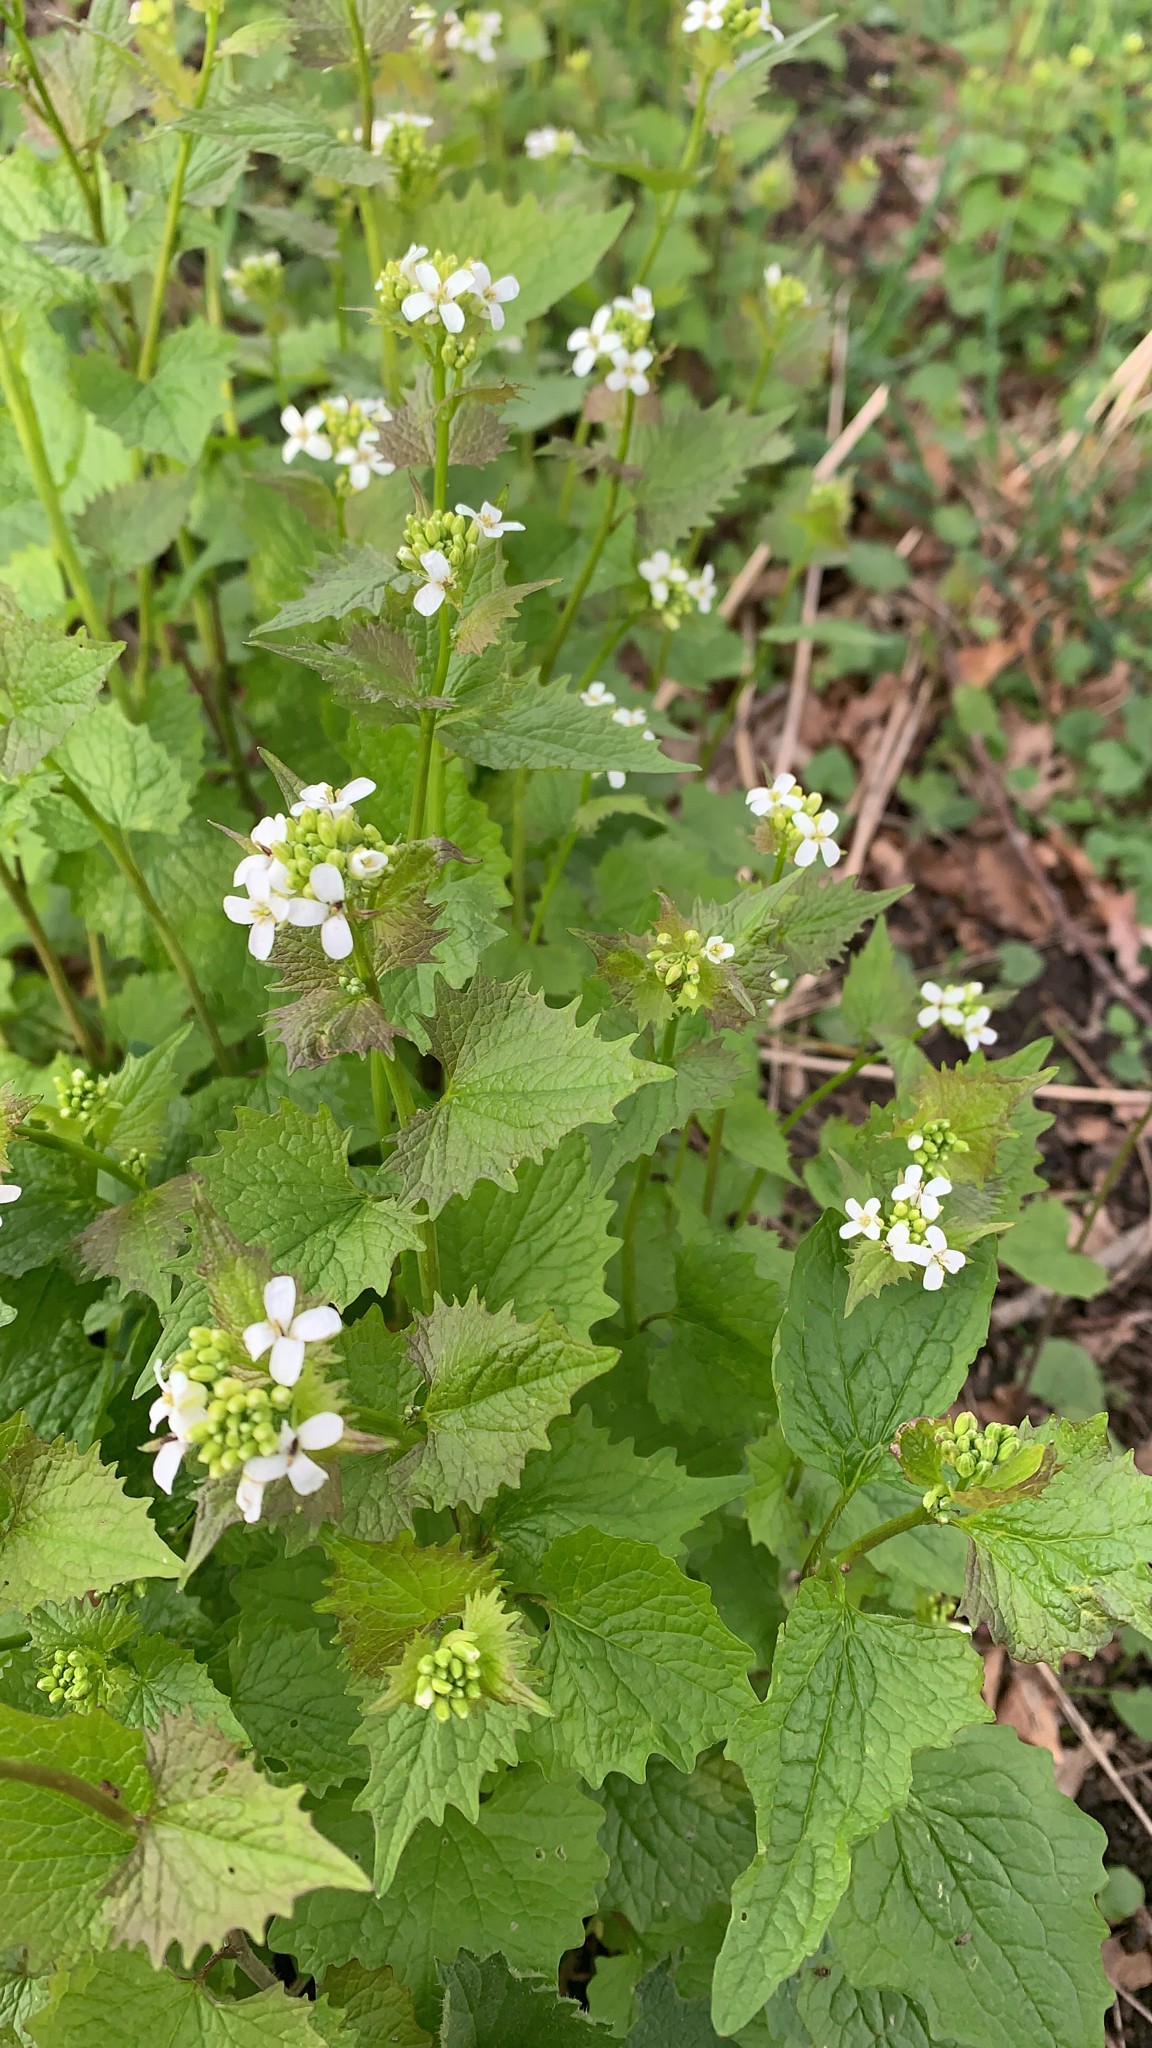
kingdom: Plantae
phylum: Tracheophyta
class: Magnoliopsida
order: Brassicales
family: Brassicaceae
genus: Alliaria
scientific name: Alliaria petiolata
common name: Garlic mustard
